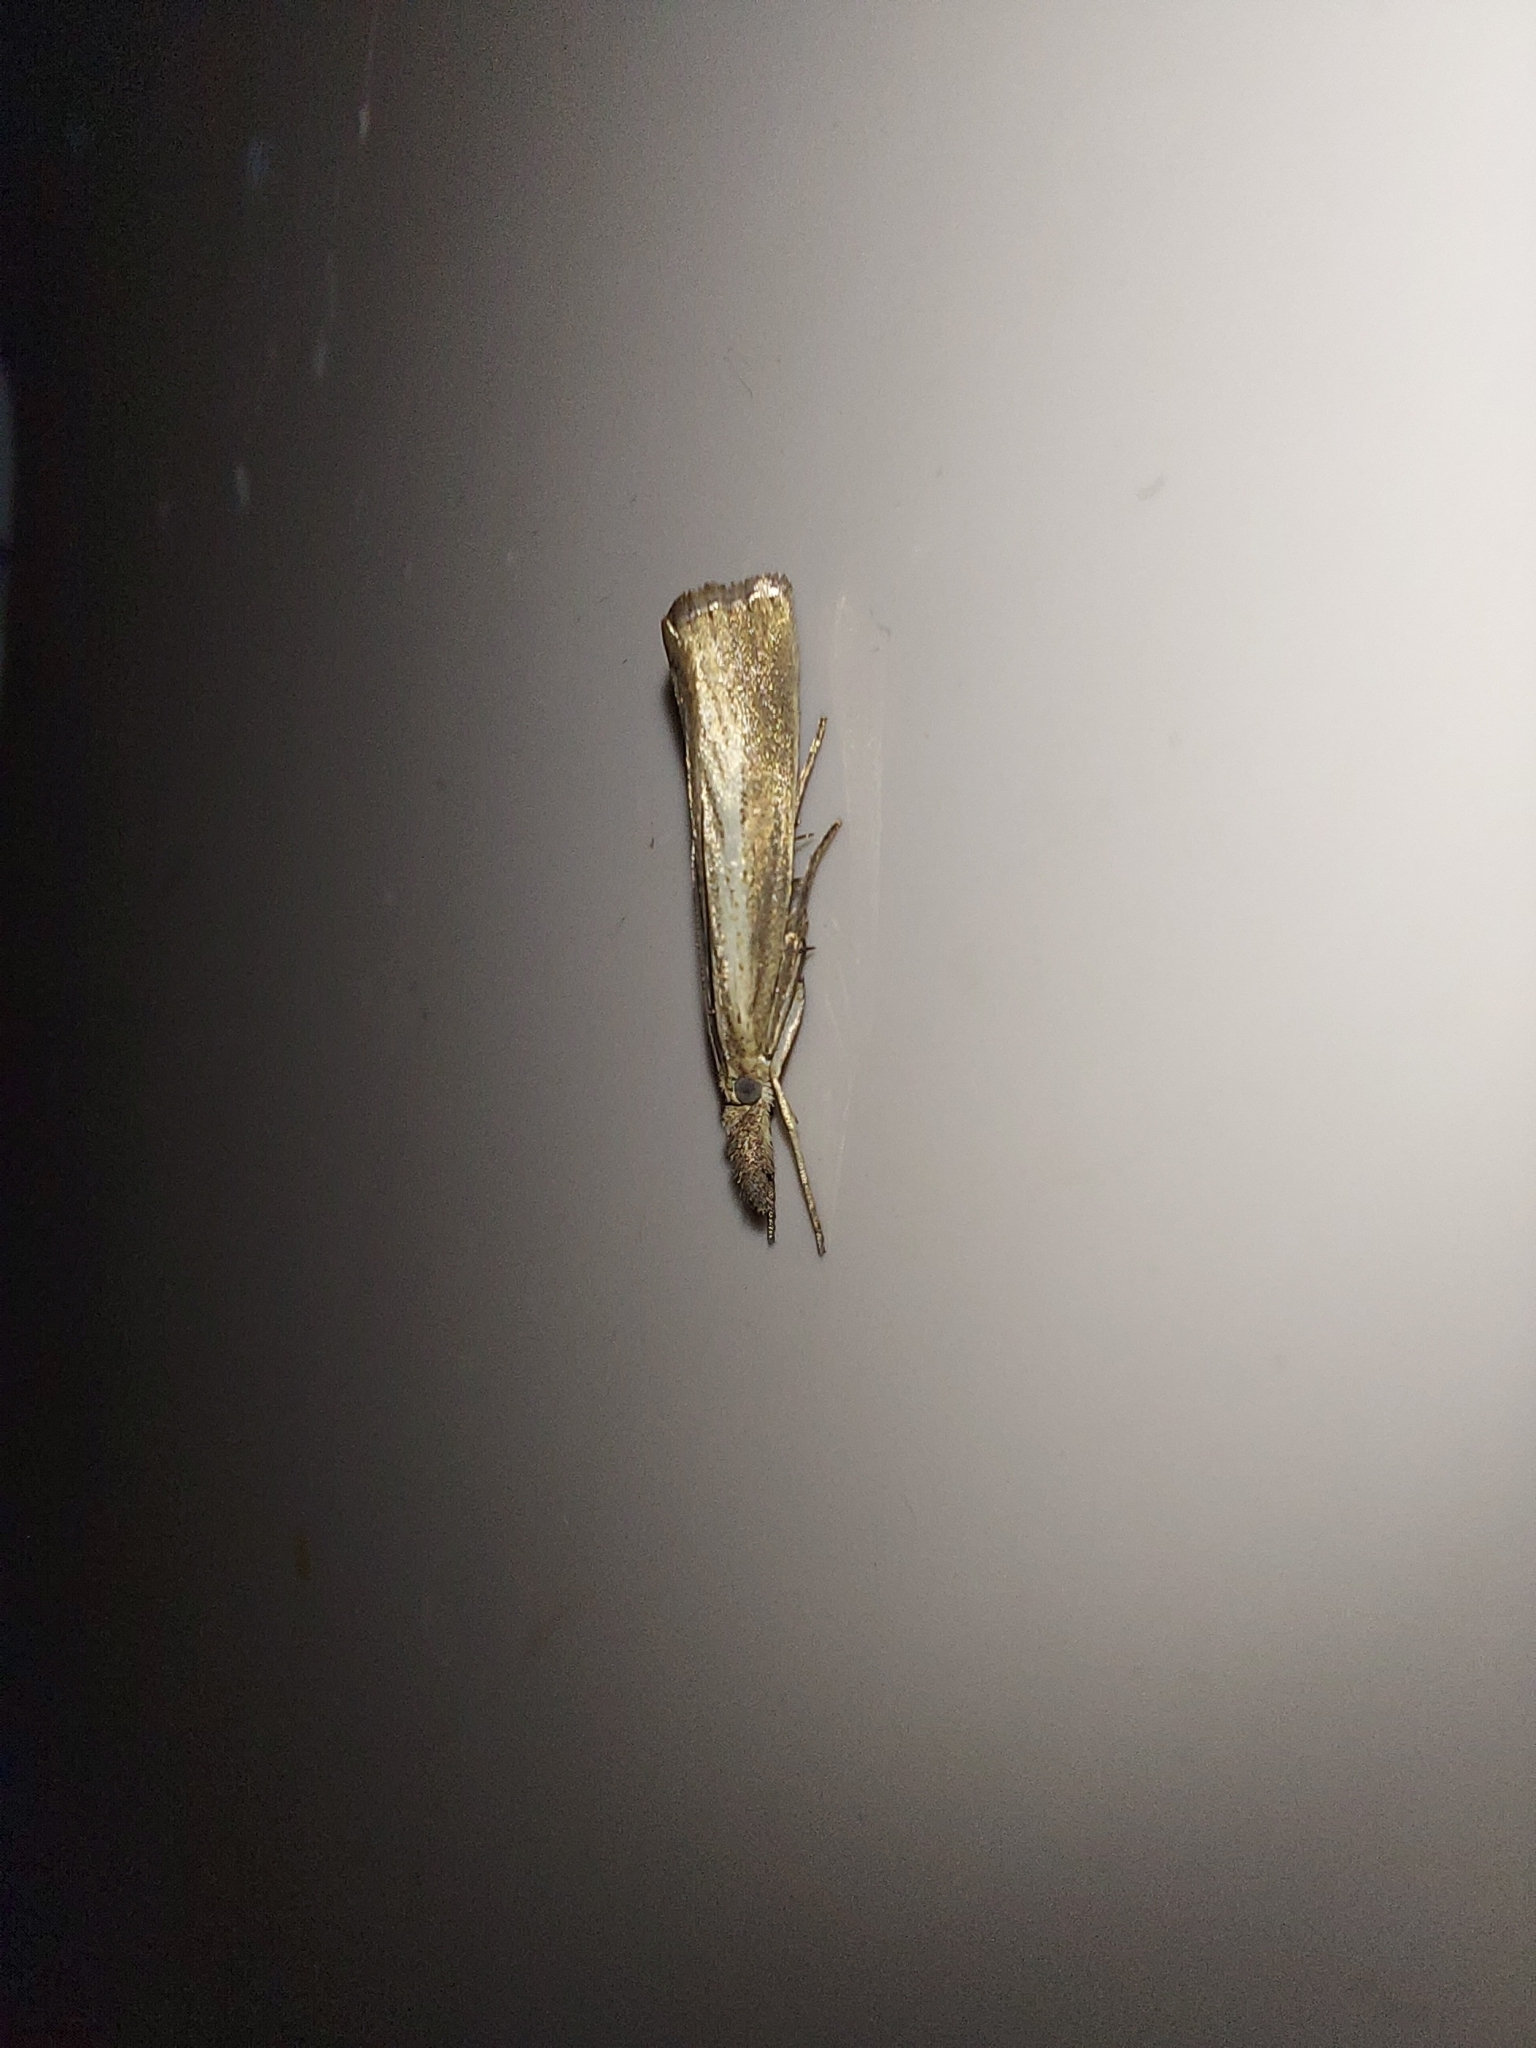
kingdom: Animalia
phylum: Arthropoda
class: Insecta
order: Lepidoptera
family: Crambidae
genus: Agriphila
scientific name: Agriphila straminella
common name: Straw grass-veneer
